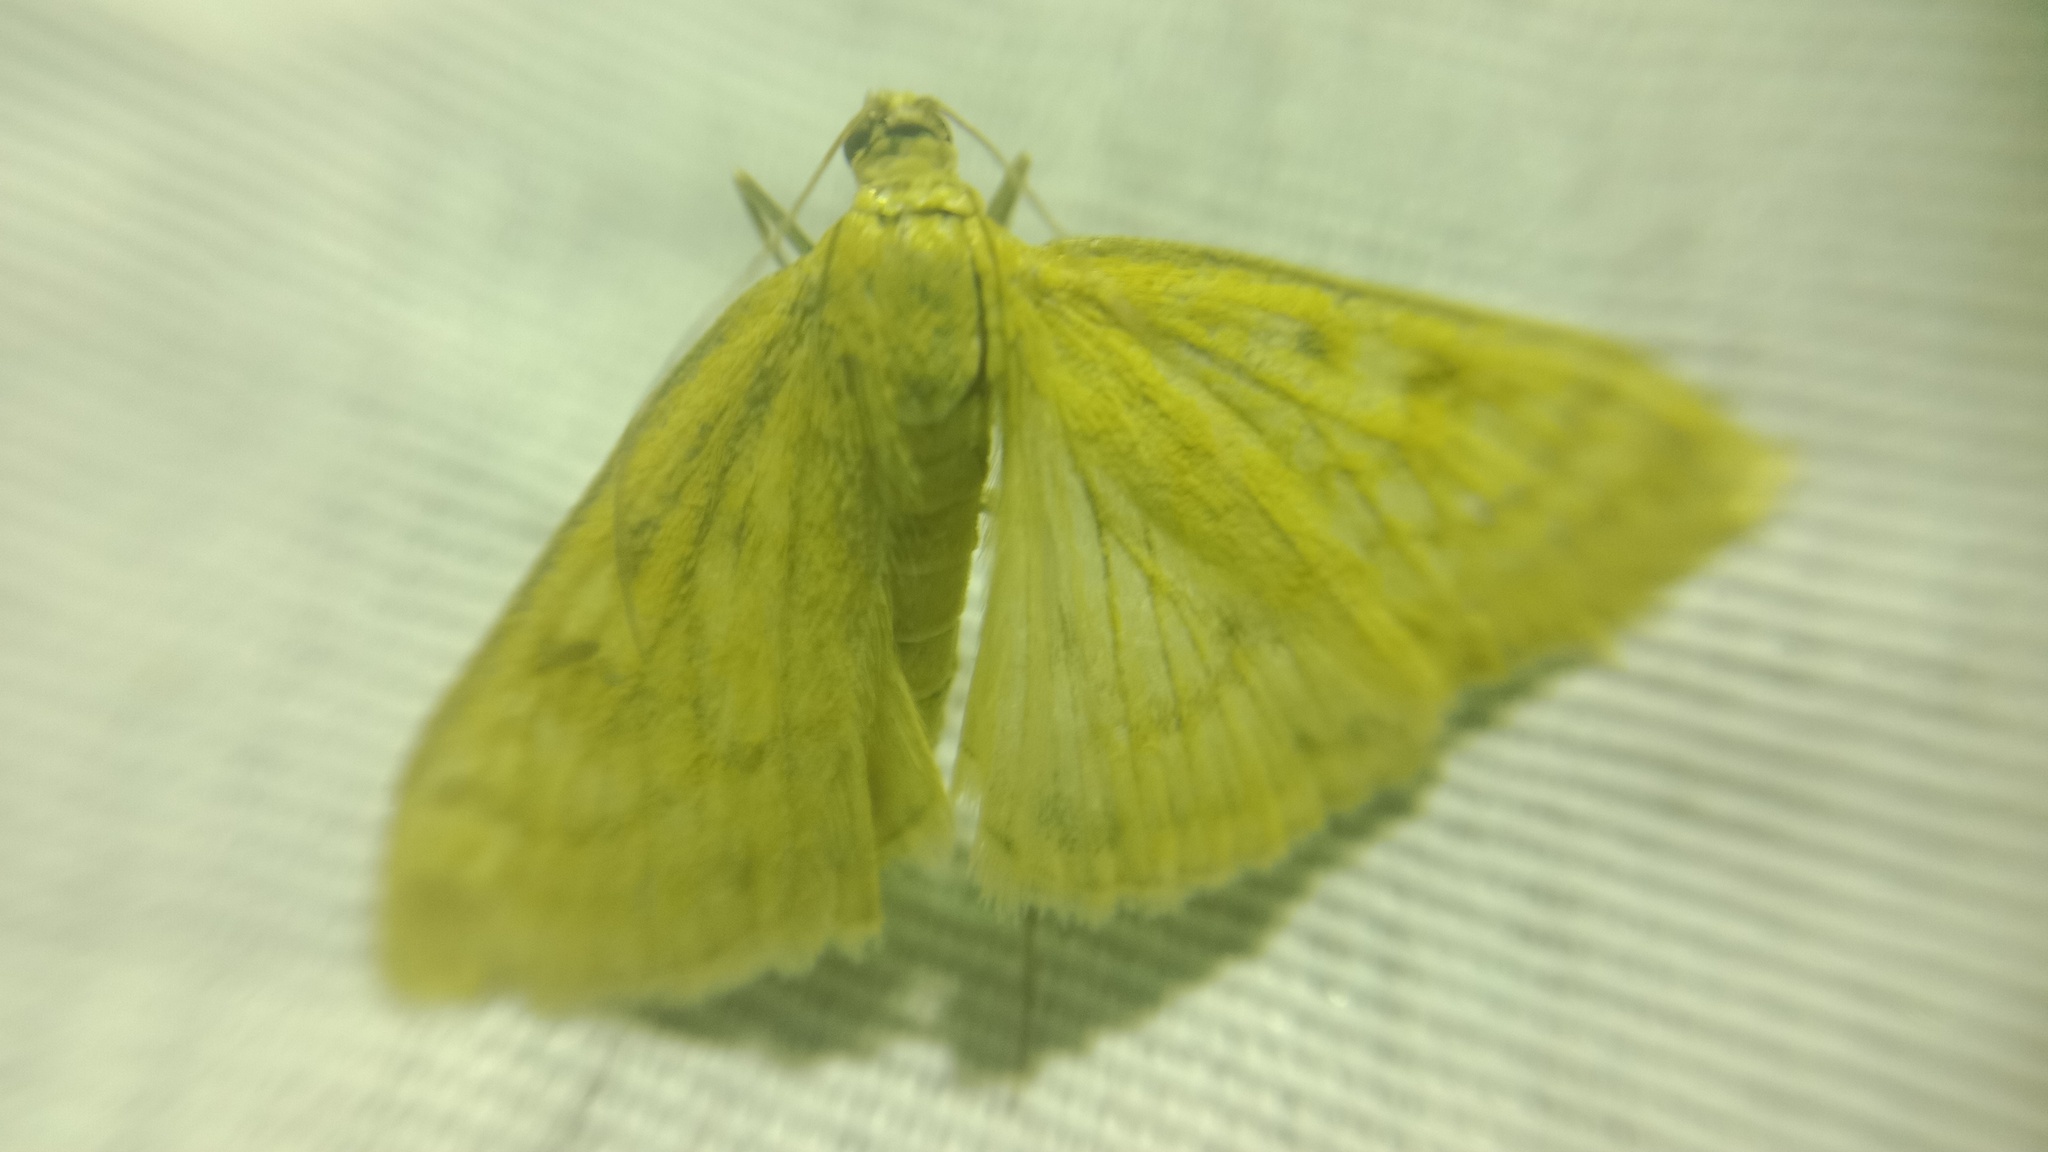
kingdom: Animalia
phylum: Arthropoda
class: Insecta
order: Lepidoptera
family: Crambidae
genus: Sitochroa
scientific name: Sitochroa verticalis
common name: Lesser pearl
